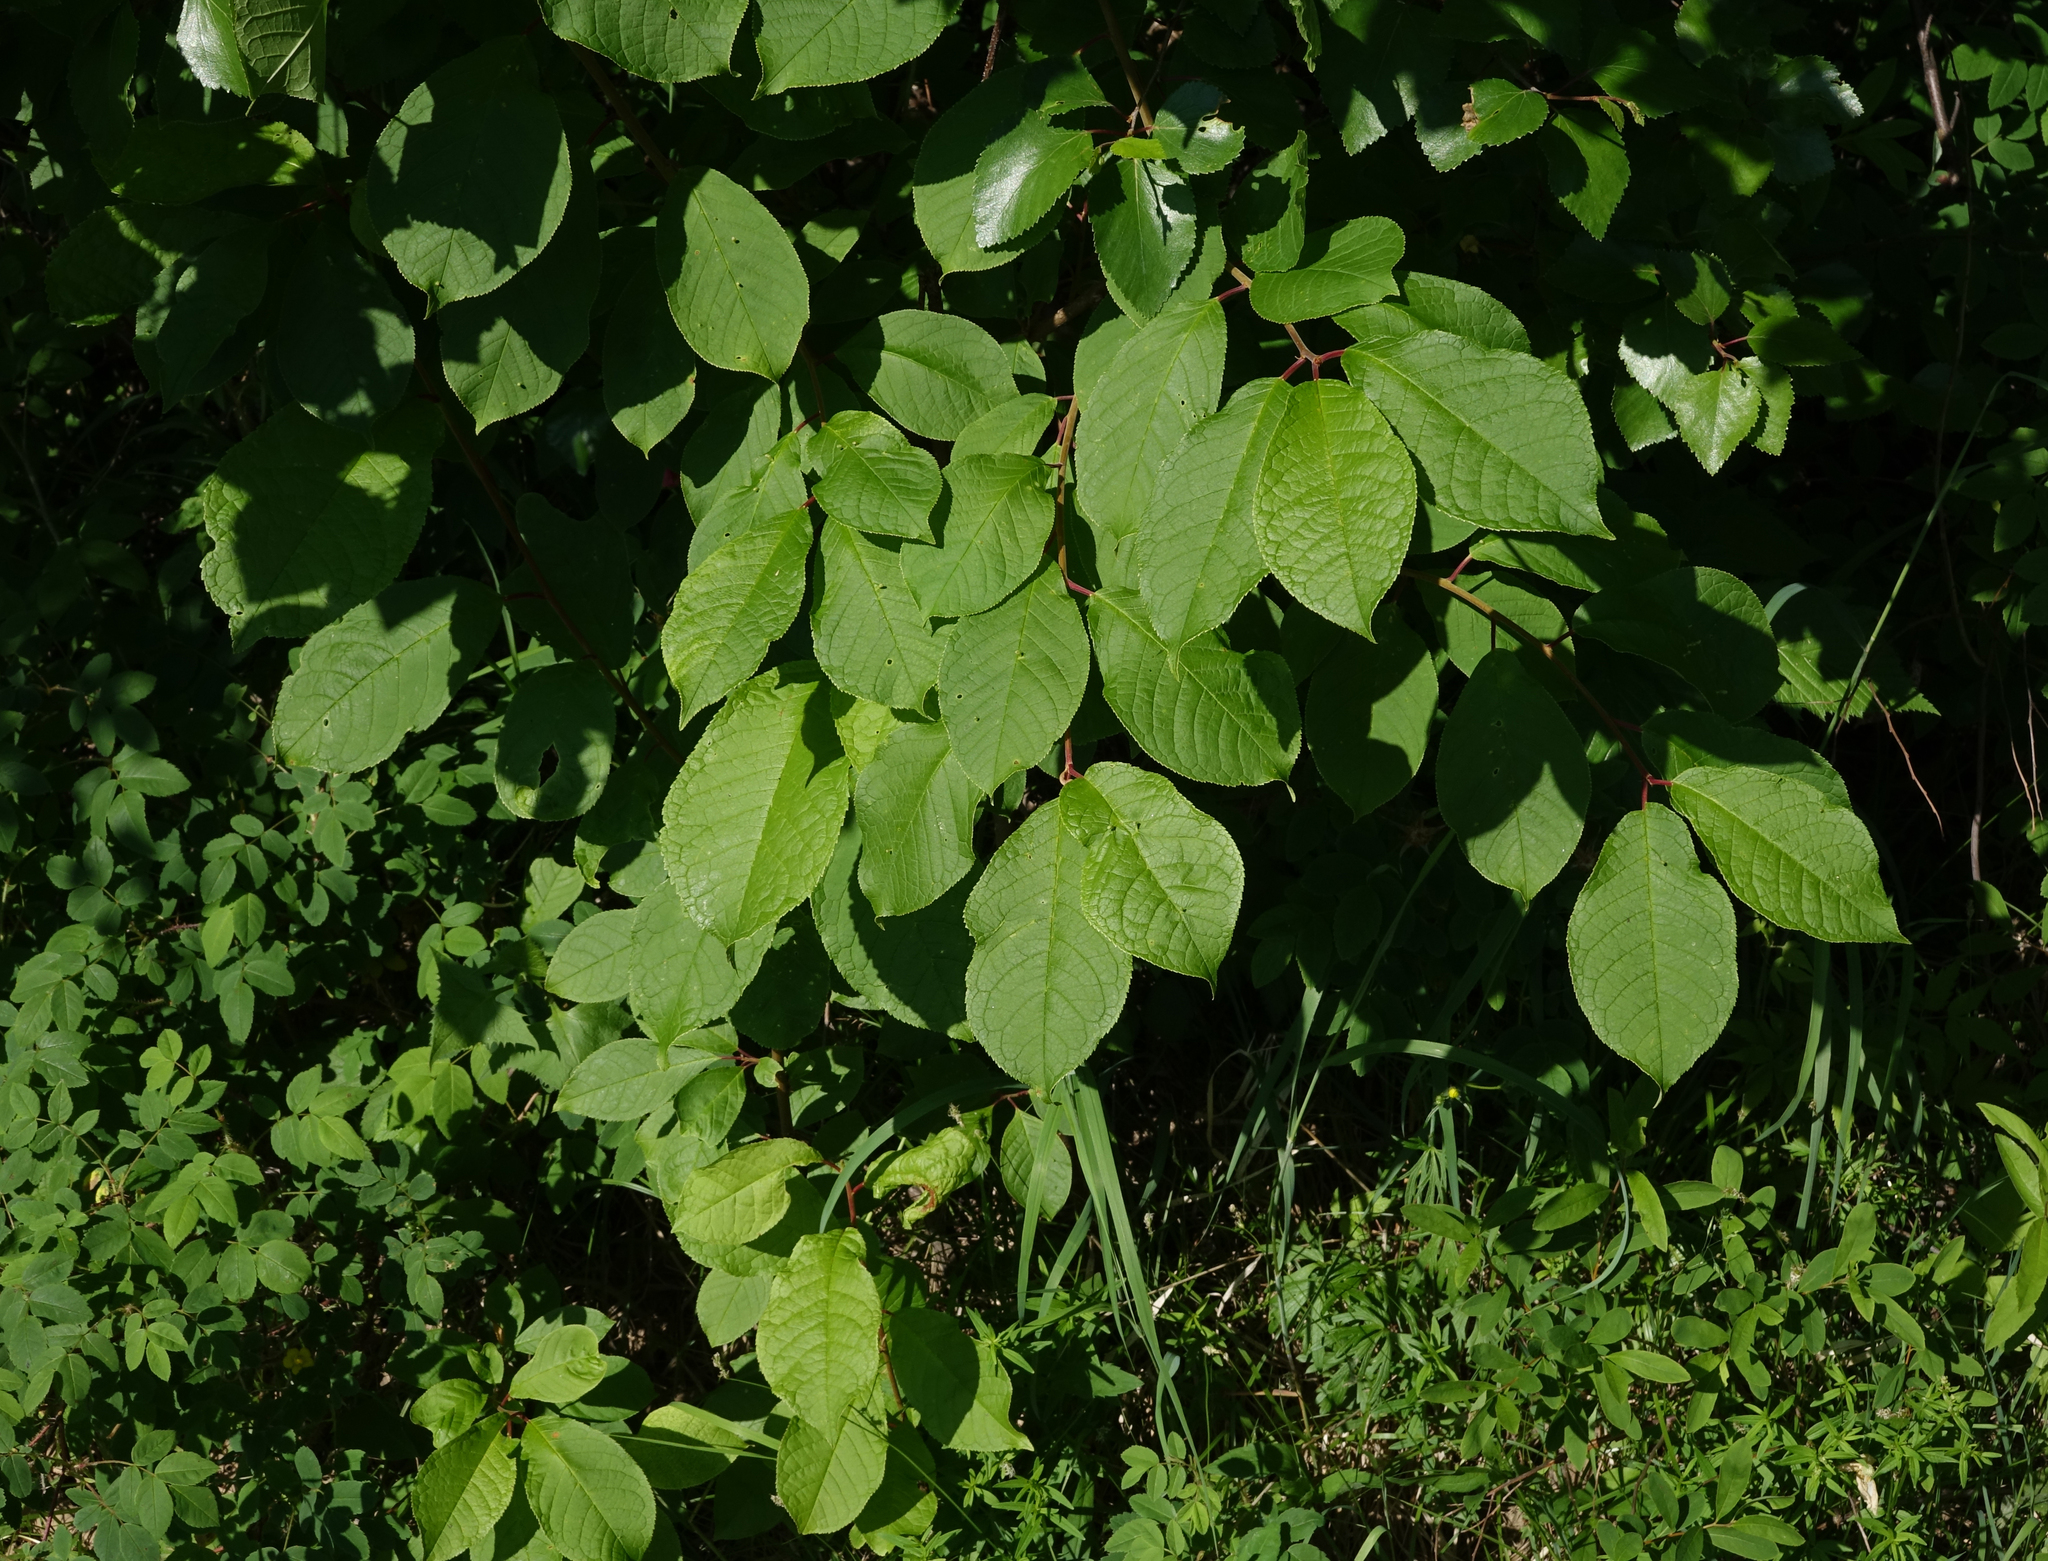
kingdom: Plantae
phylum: Tracheophyta
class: Magnoliopsida
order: Rosales
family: Rosaceae
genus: Prunus
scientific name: Prunus padus
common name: Bird cherry
